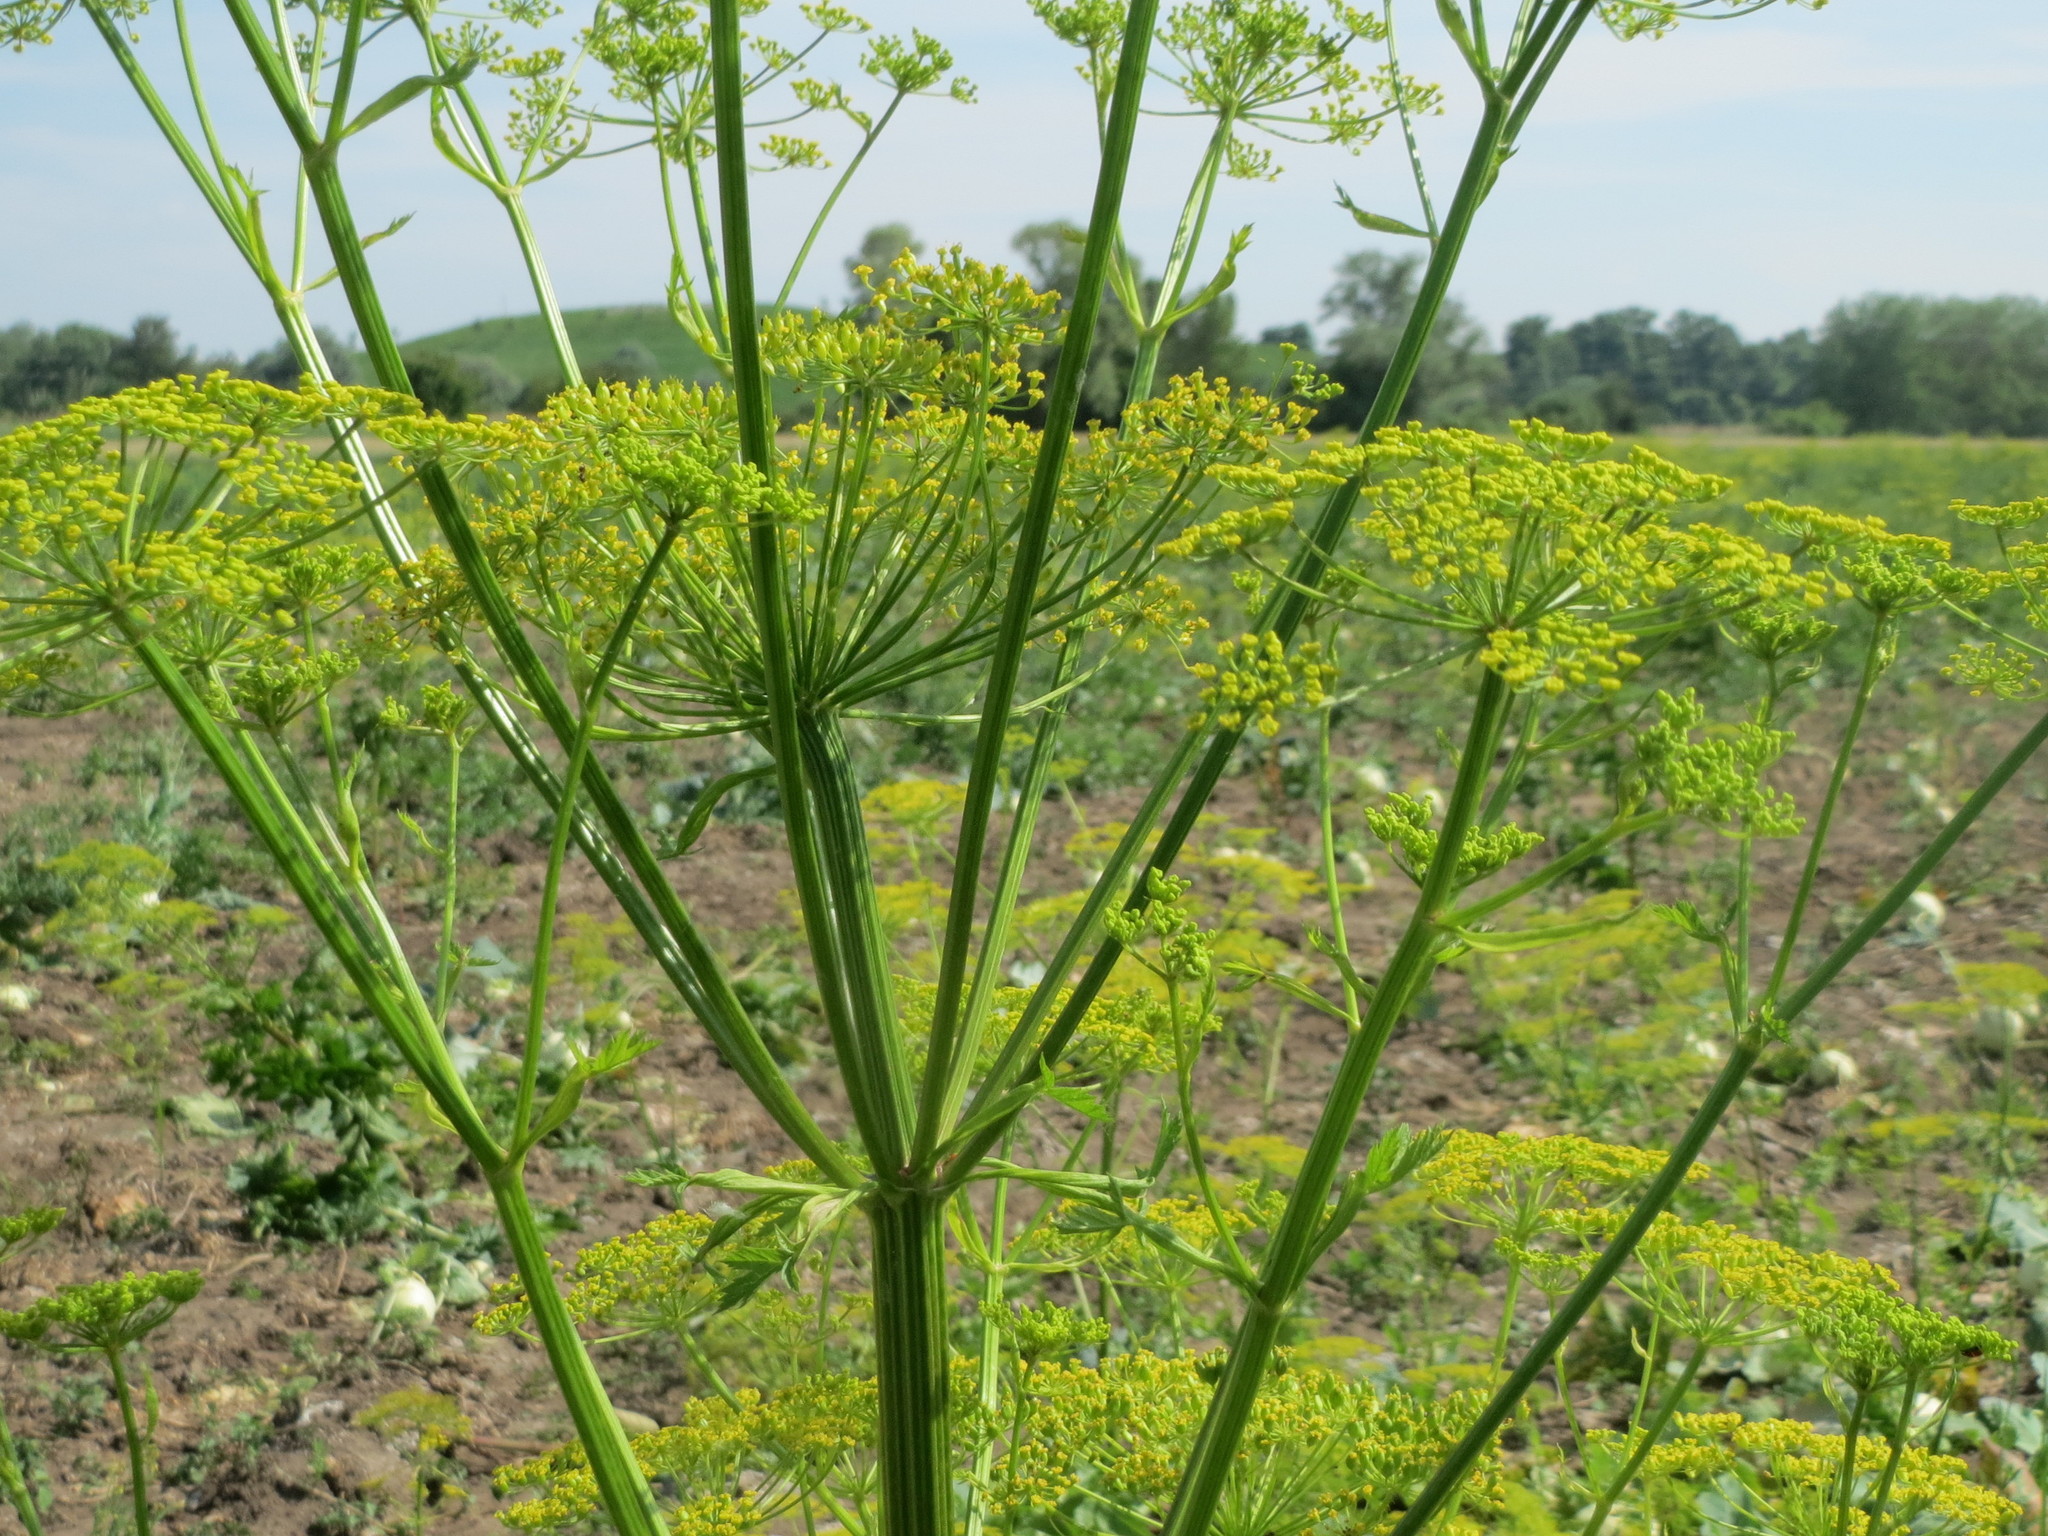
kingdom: Plantae
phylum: Tracheophyta
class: Magnoliopsida
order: Apiales
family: Apiaceae
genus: Pastinaca
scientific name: Pastinaca sativa
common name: Wild parsnip
